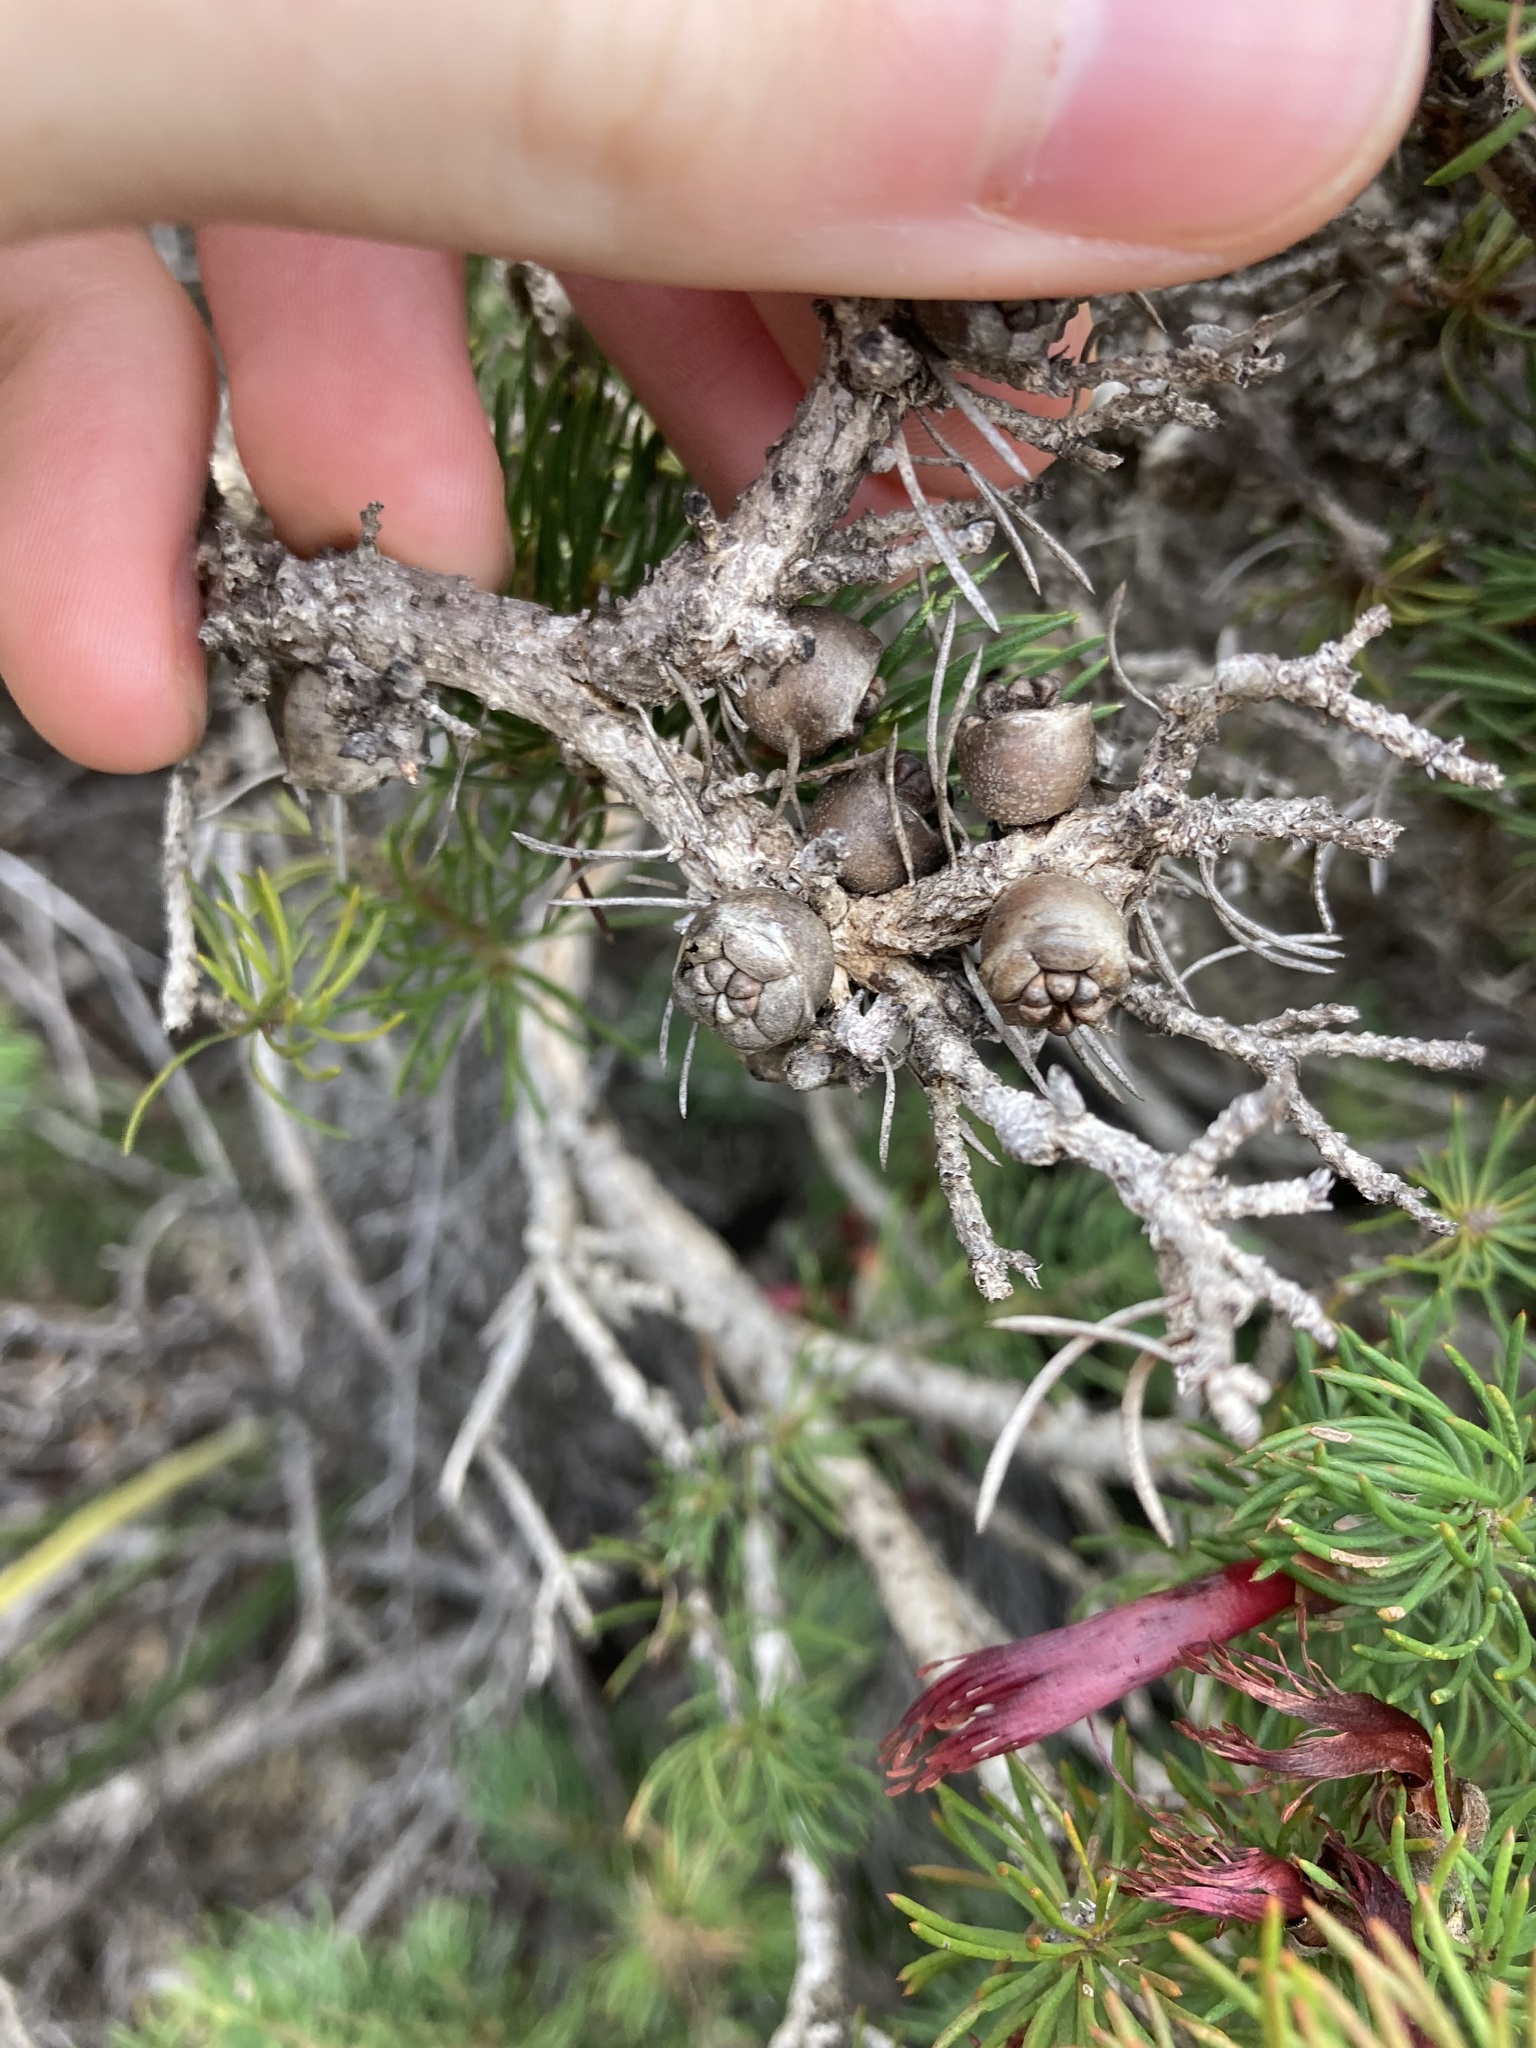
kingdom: Plantae
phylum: Tracheophyta
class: Magnoliopsida
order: Myrtales
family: Myrtaceae
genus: Melaleuca
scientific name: Melaleuca cruenta
